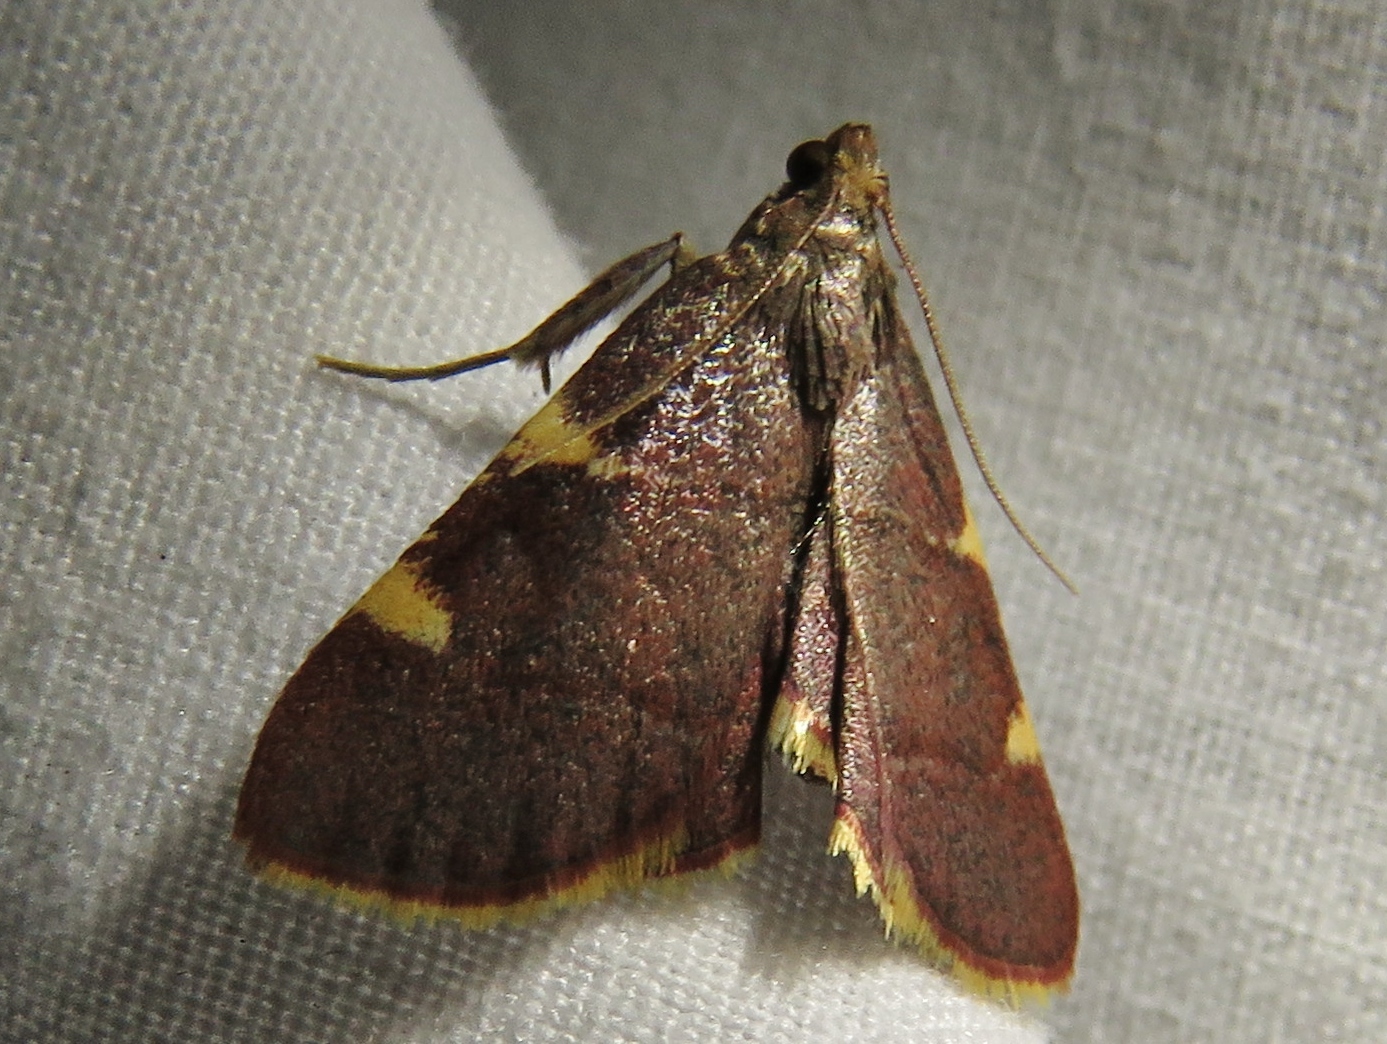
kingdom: Animalia
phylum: Arthropoda
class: Insecta
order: Lepidoptera
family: Pyralidae
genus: Hypsopygia
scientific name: Hypsopygia olinalis
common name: Yellow-fringed dolichomia moth
